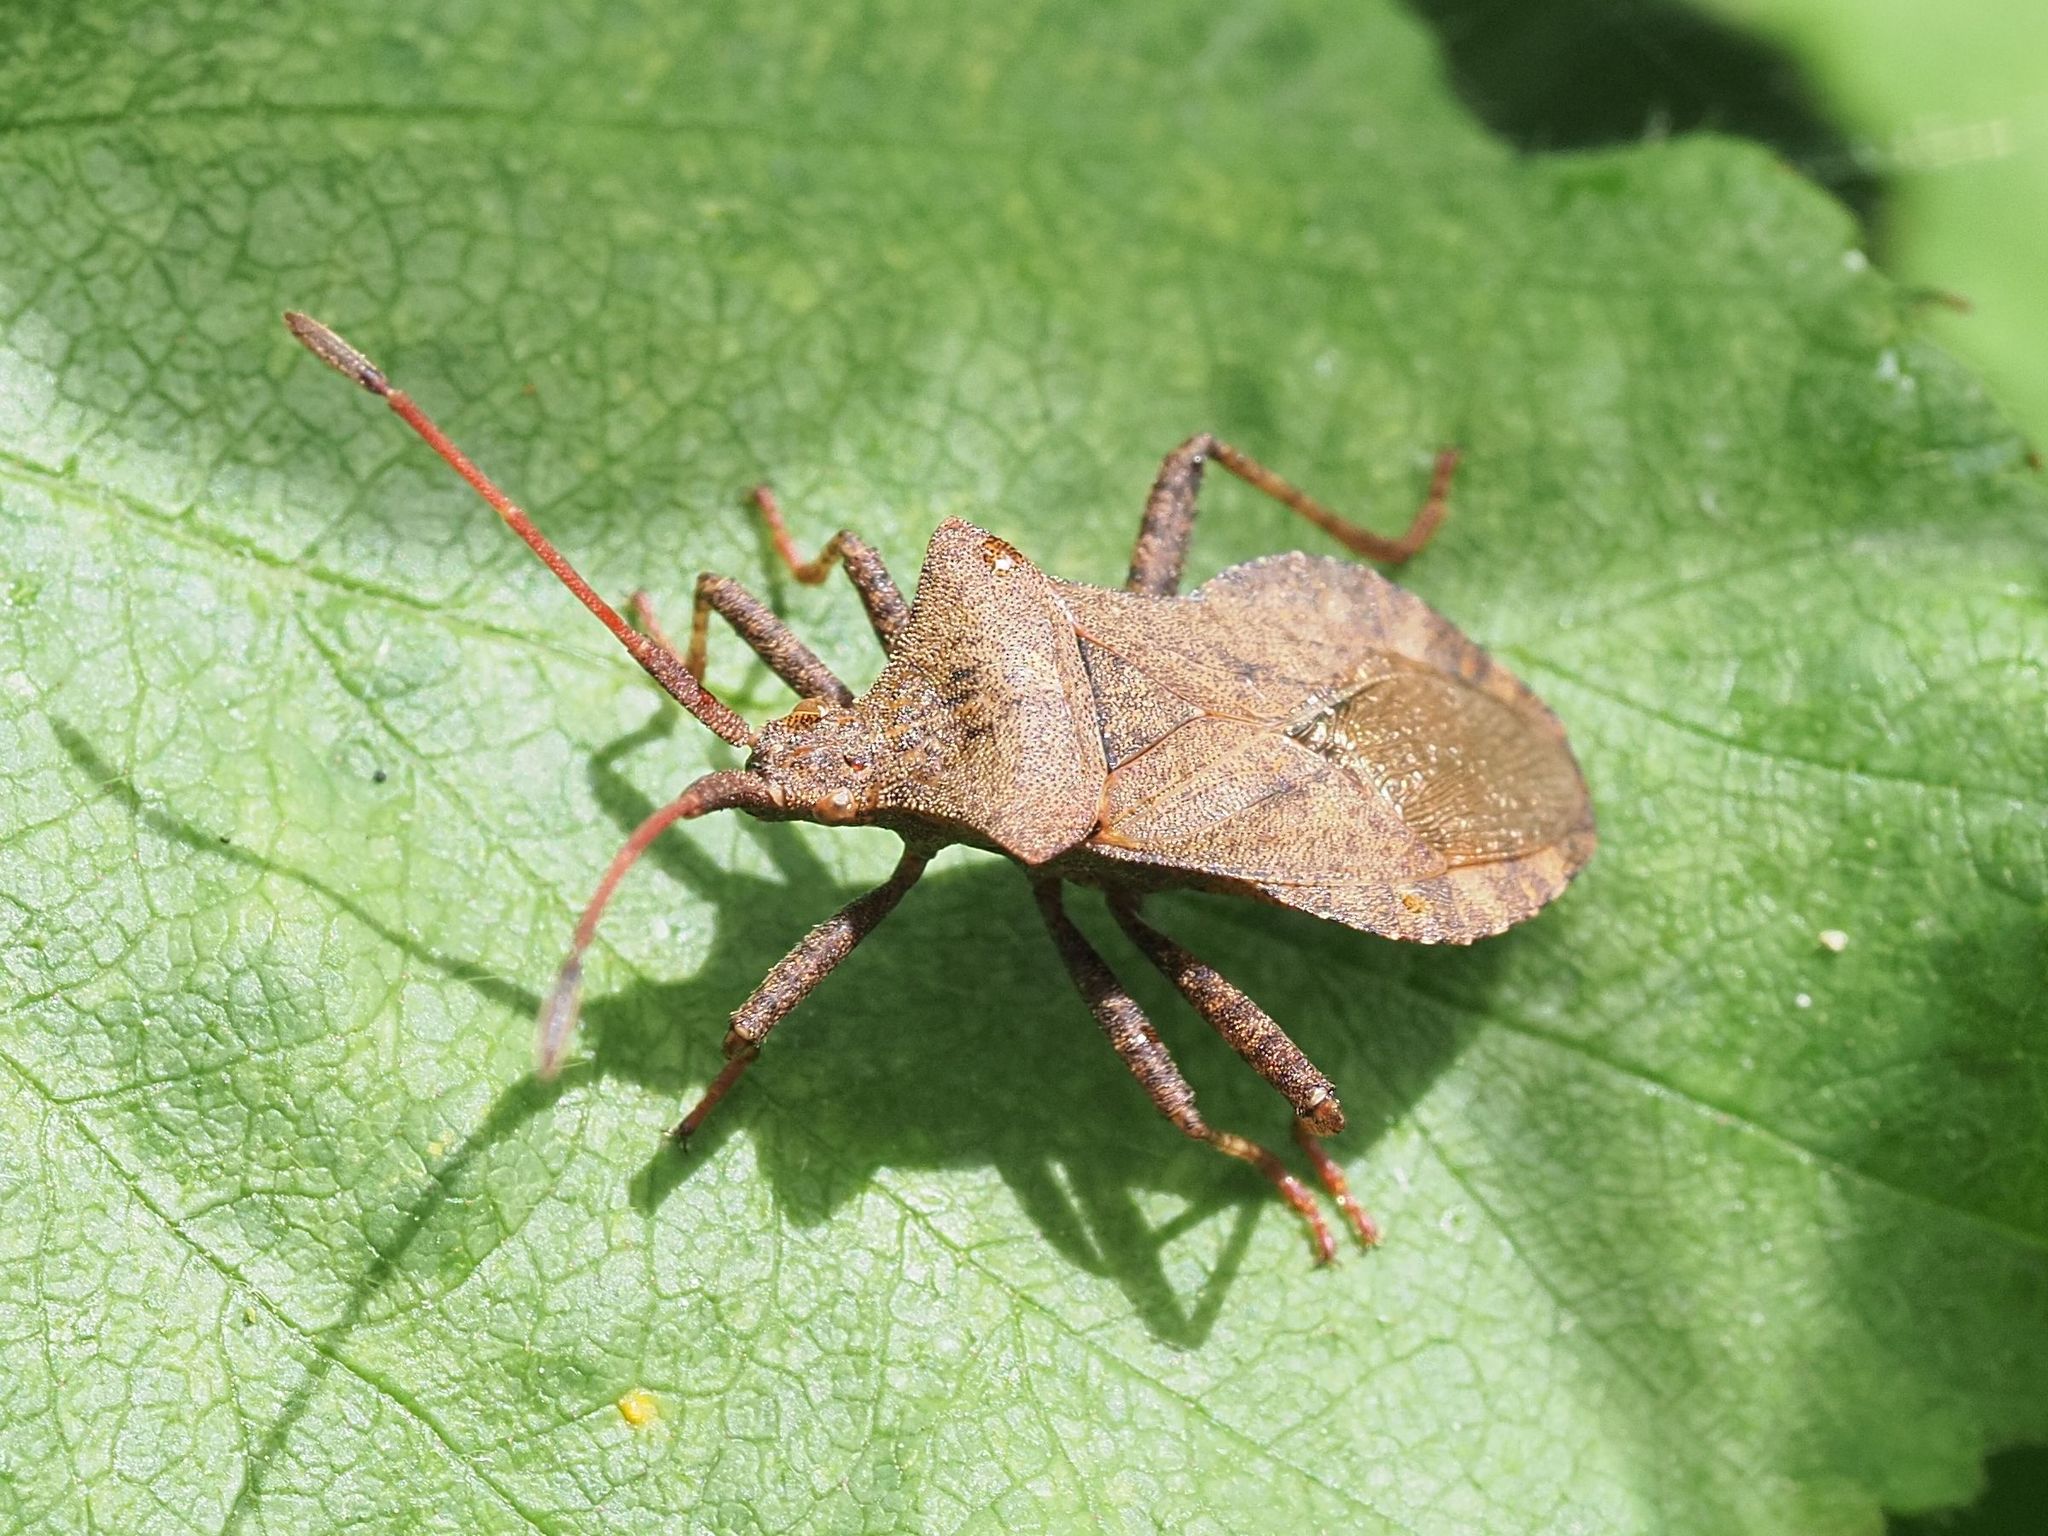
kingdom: Animalia
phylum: Arthropoda
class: Insecta
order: Hemiptera
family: Coreidae
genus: Coreus
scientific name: Coreus marginatus
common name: Dock bug
